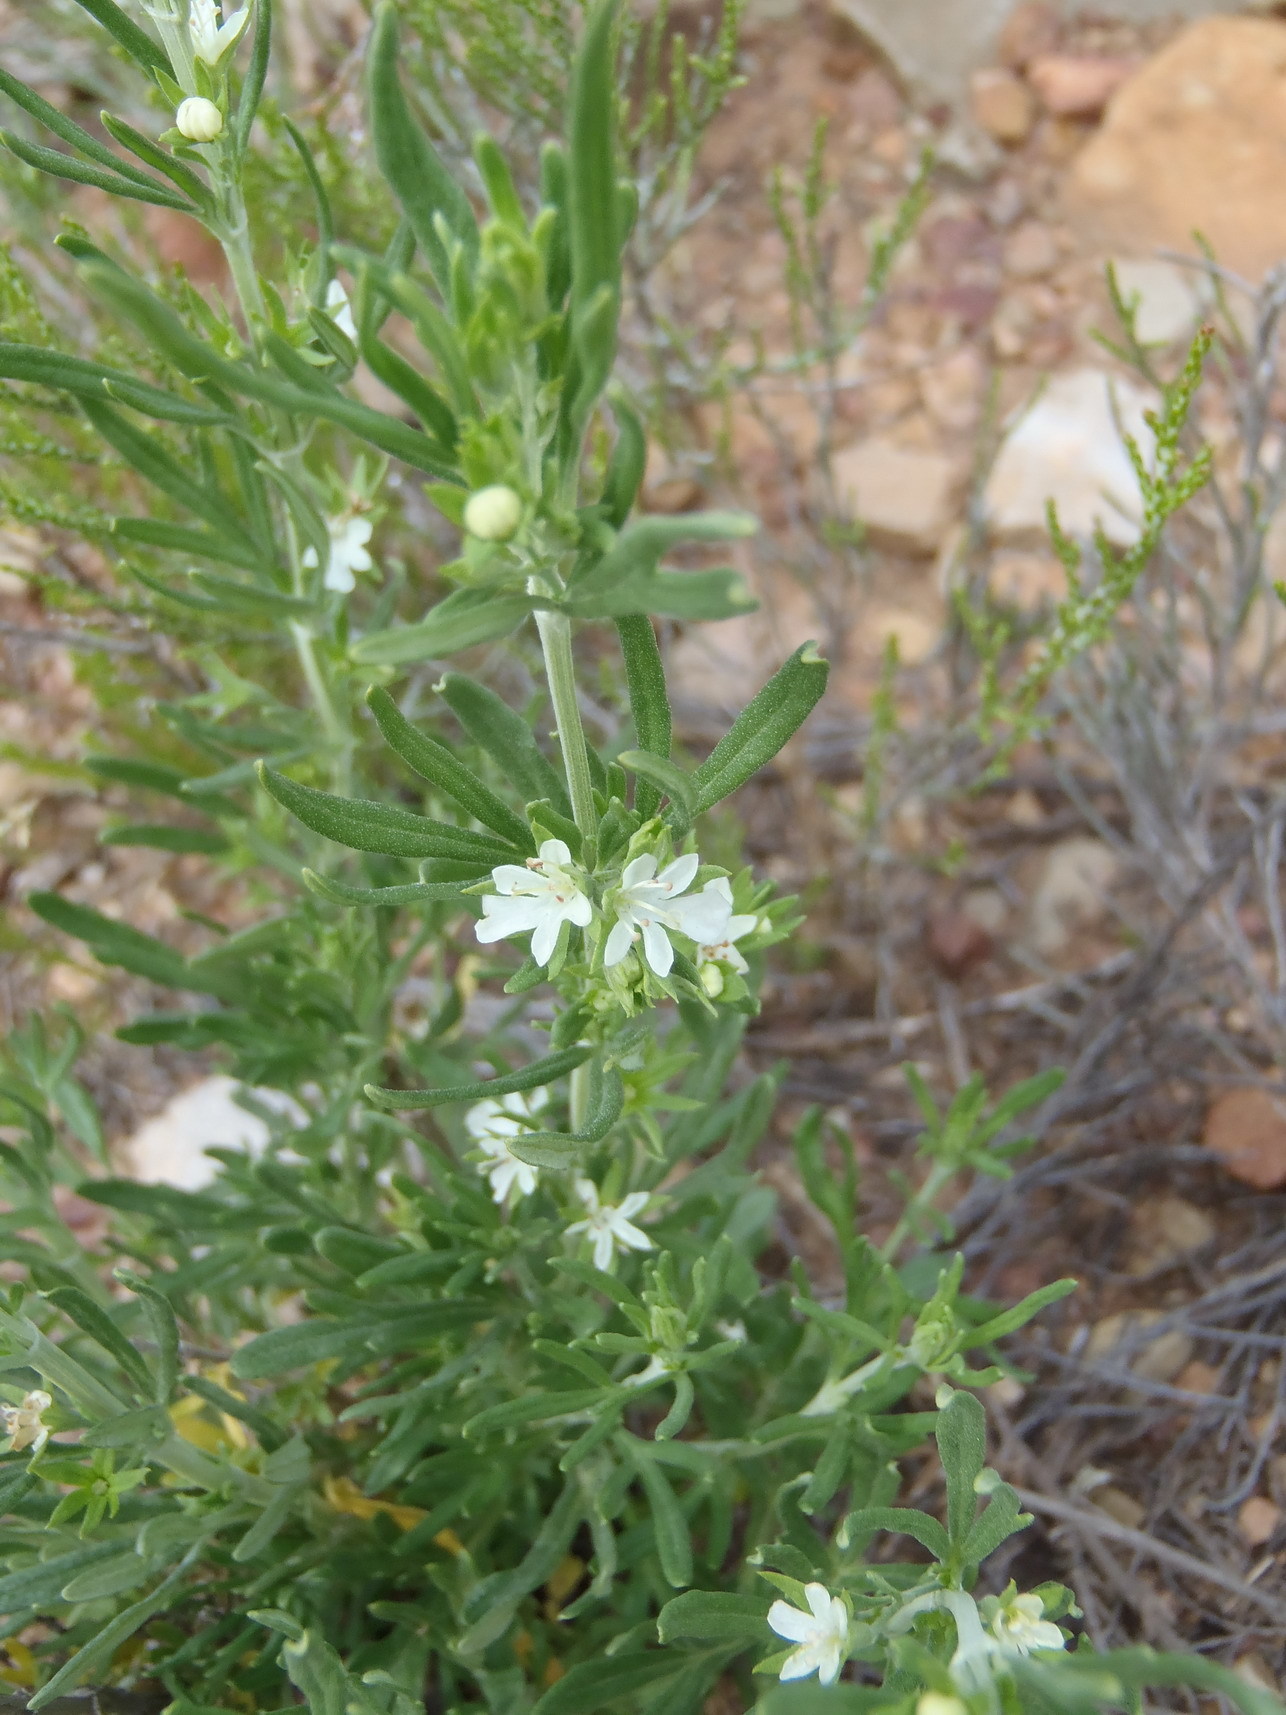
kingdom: Plantae
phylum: Tracheophyta
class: Magnoliopsida
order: Lamiales
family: Lamiaceae
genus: Teucrium
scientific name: Teucrium africanum
